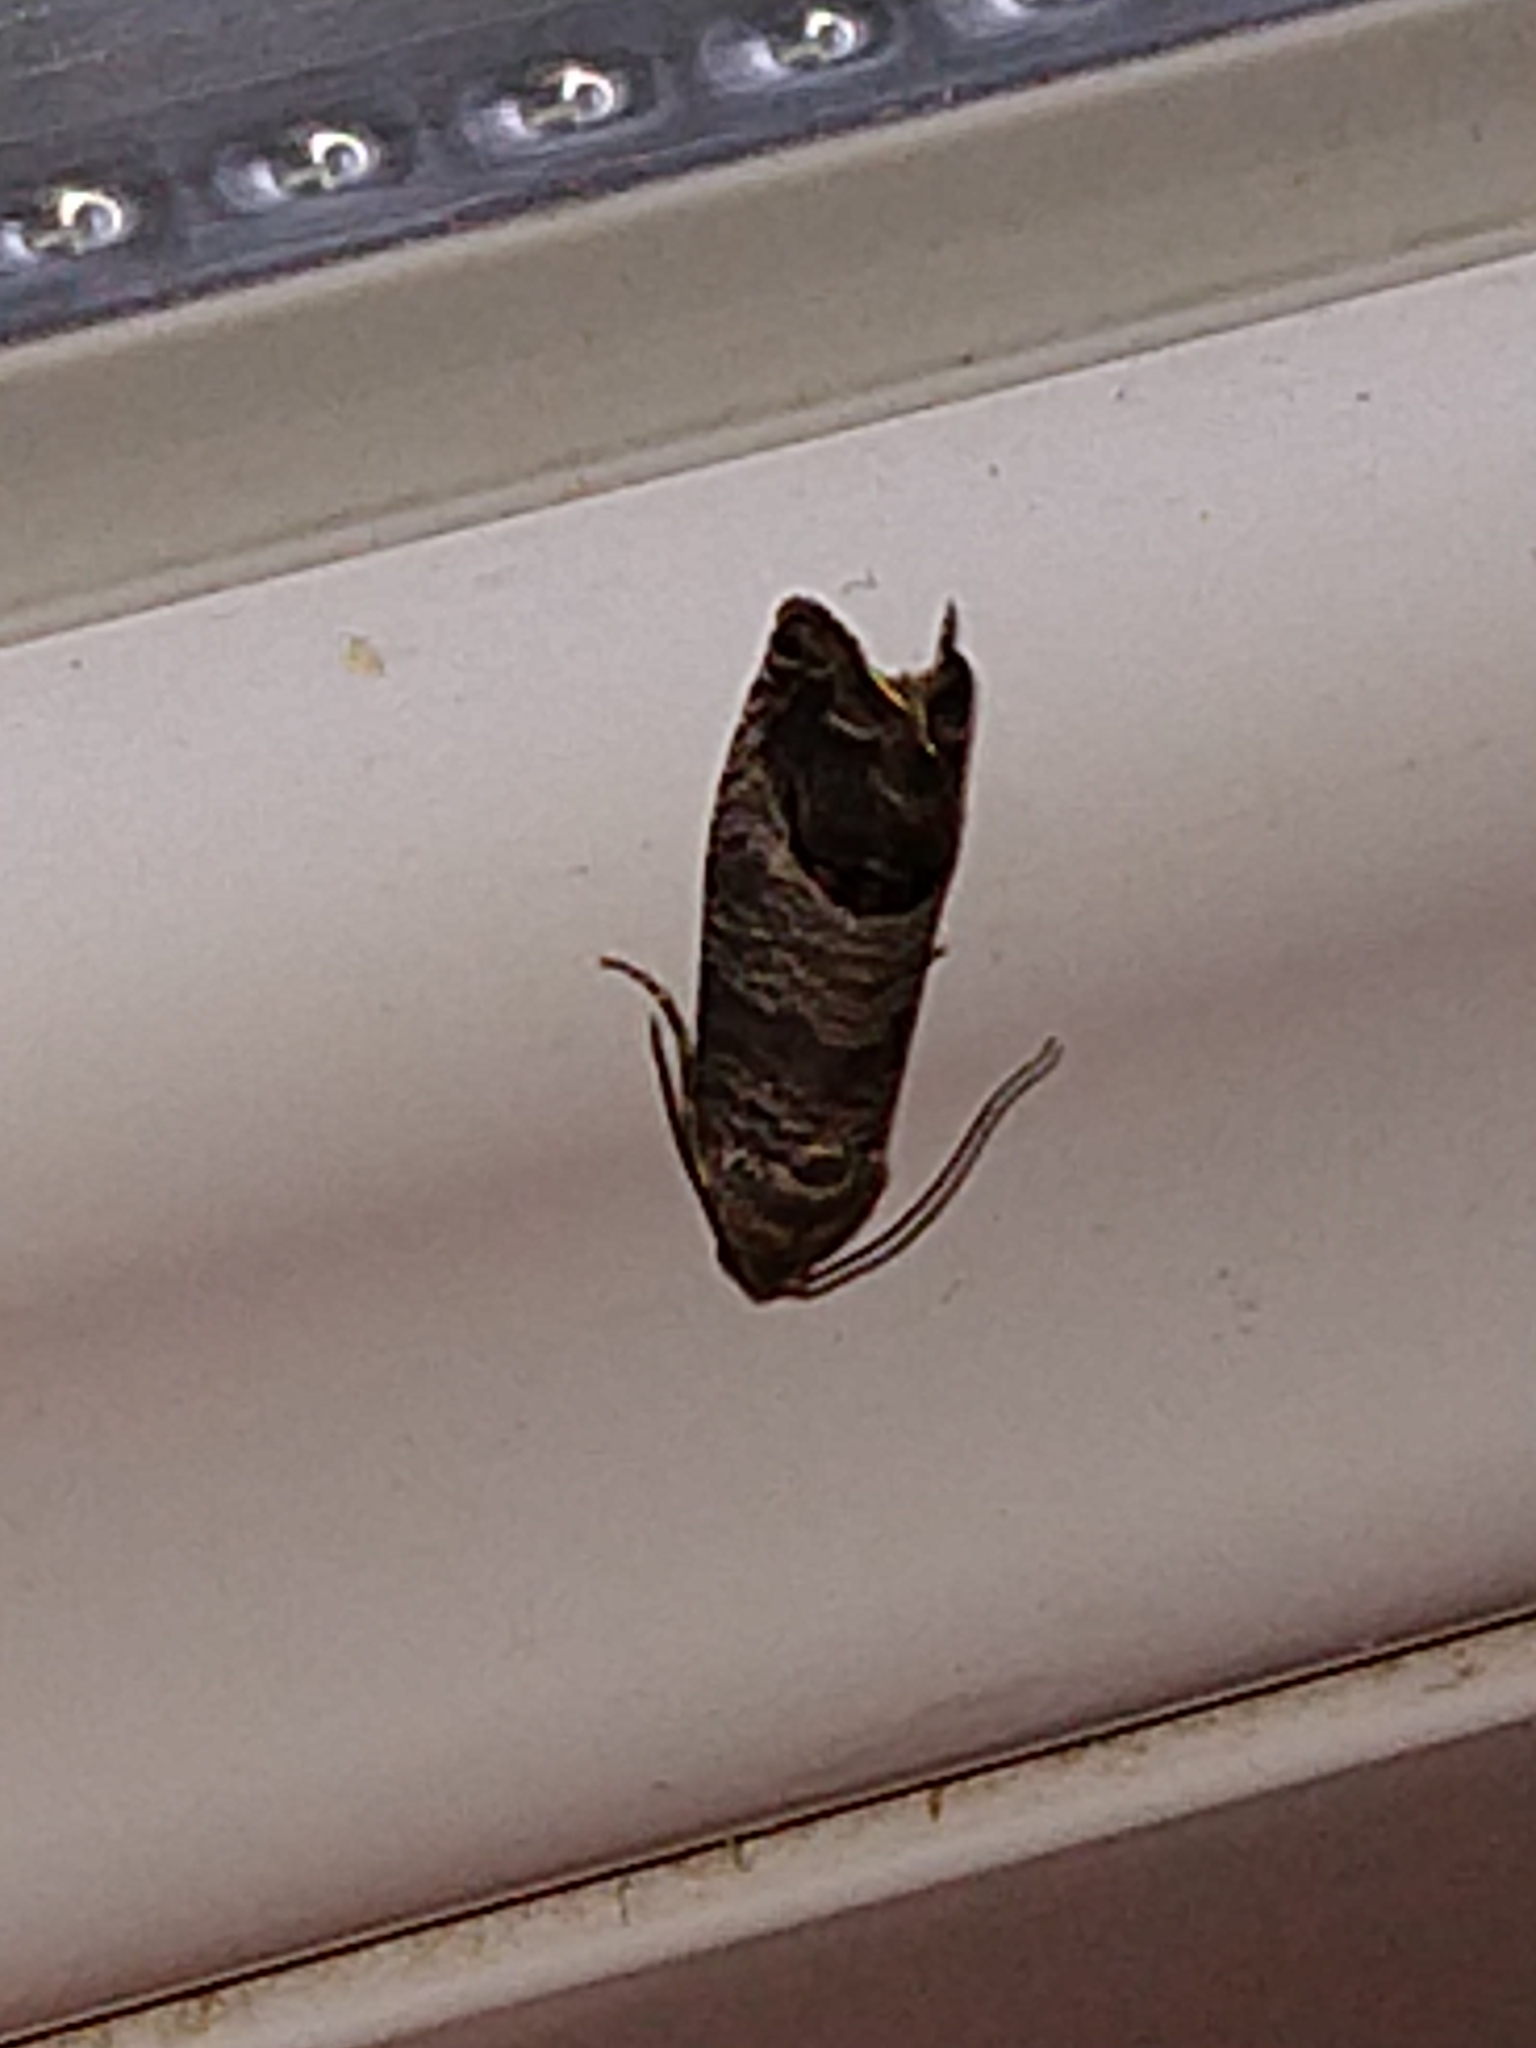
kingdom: Animalia
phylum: Arthropoda
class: Insecta
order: Lepidoptera
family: Tortricidae
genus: Cydia
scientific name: Cydia pomonella
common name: Codling moth
